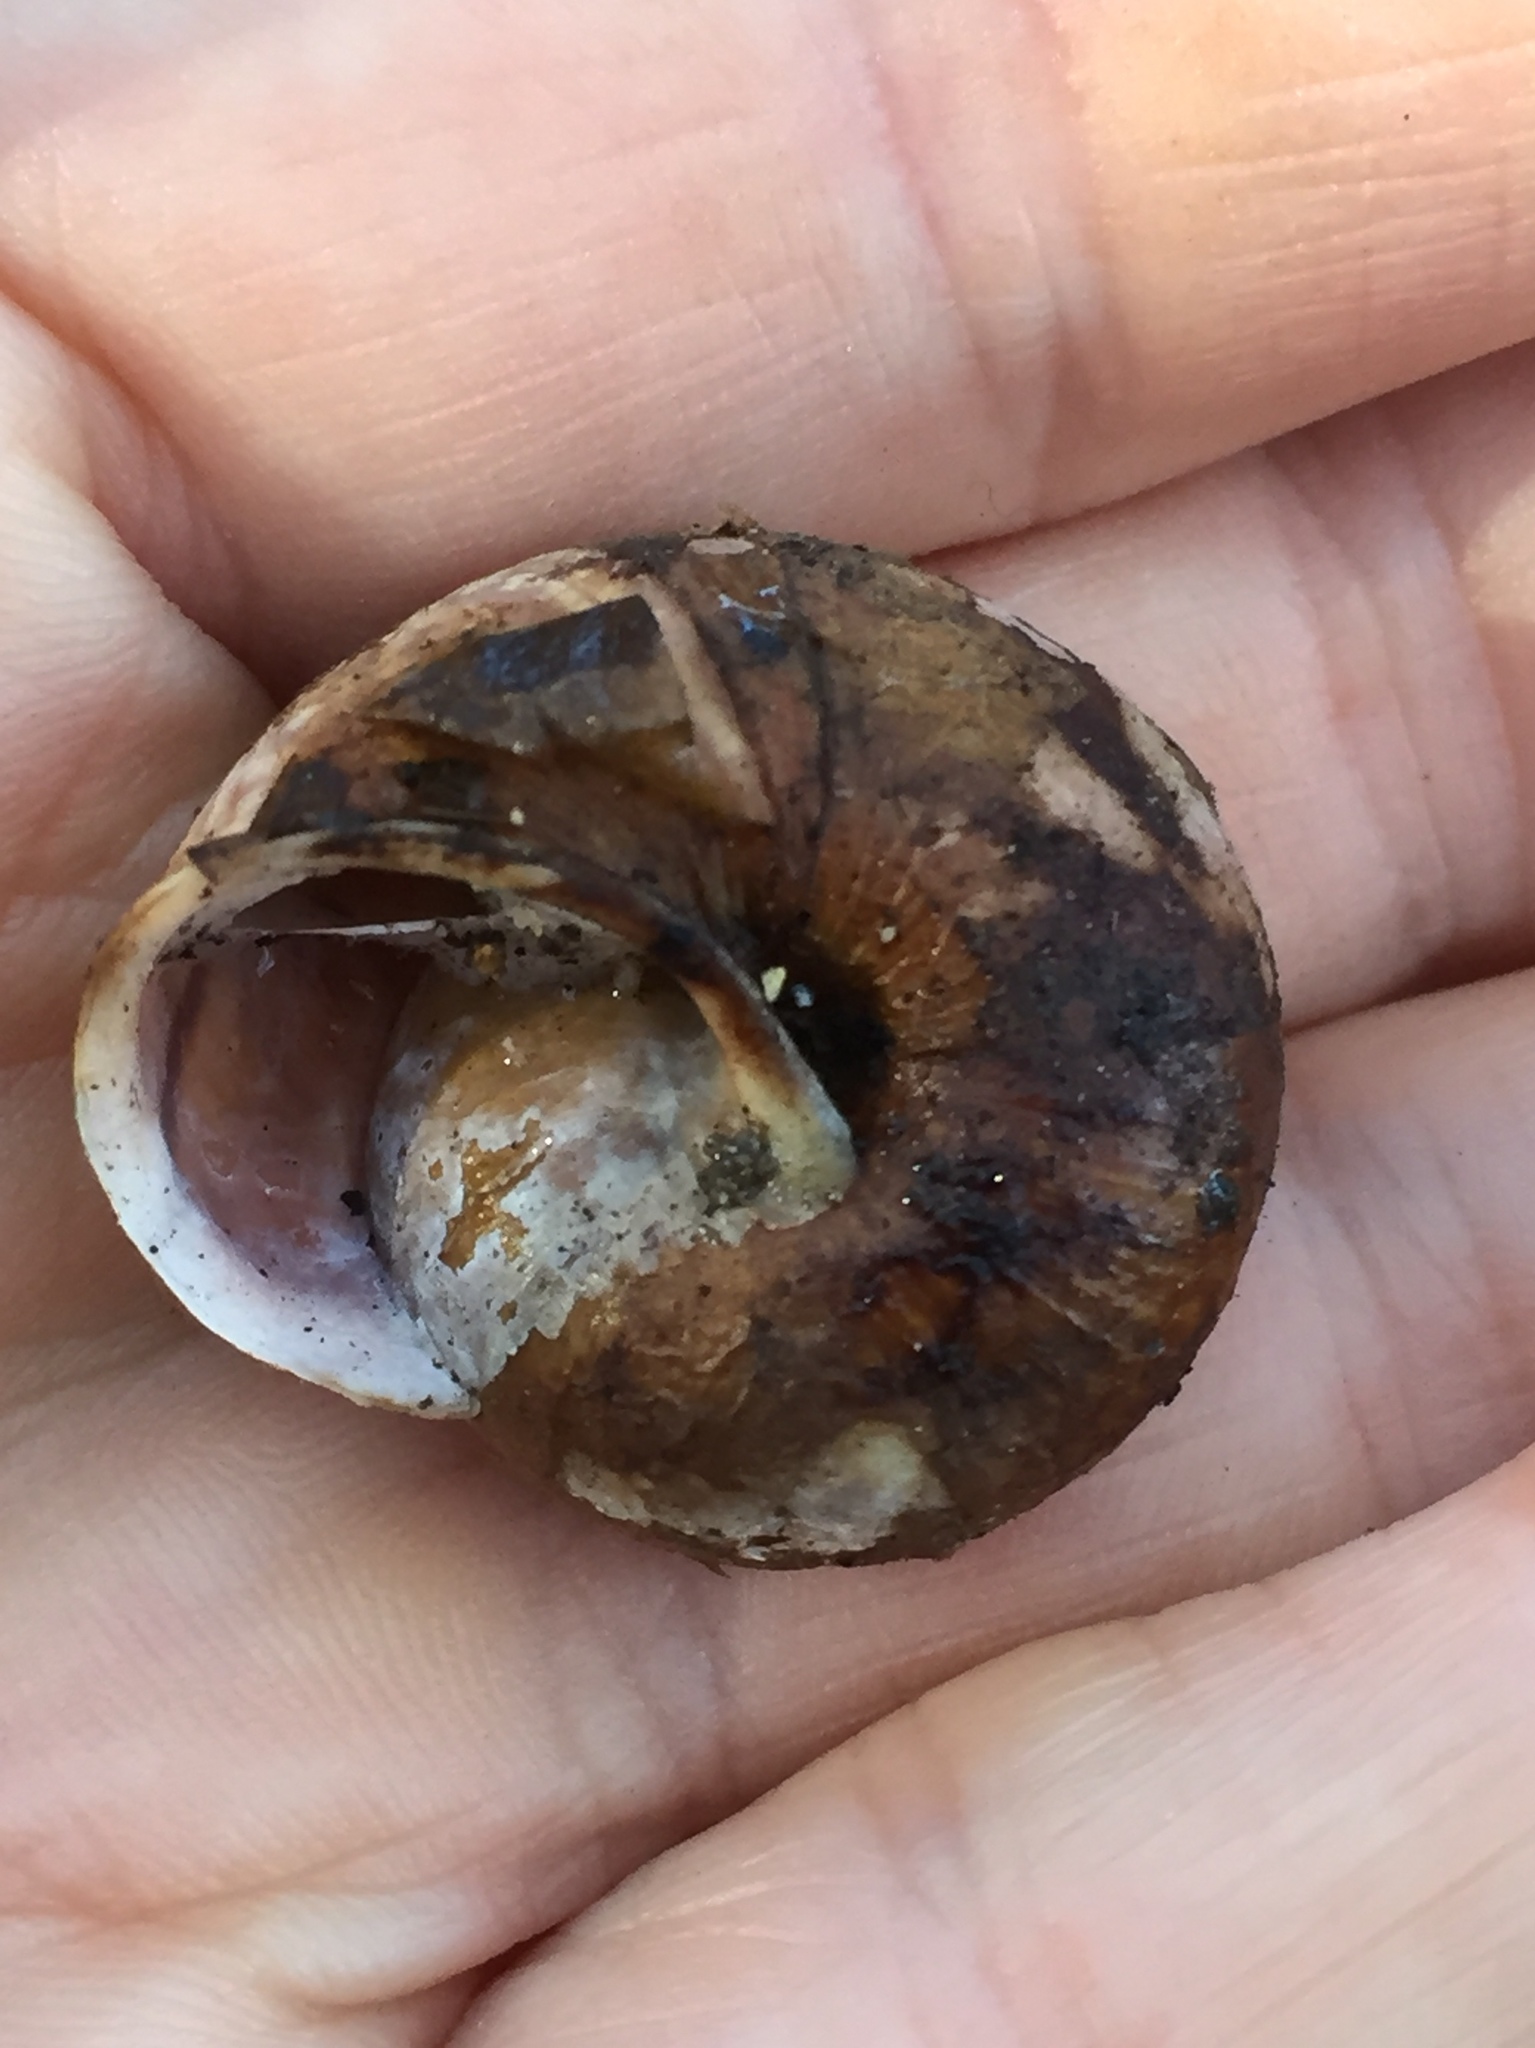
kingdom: Animalia
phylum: Mollusca
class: Gastropoda
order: Stylommatophora
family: Xanthonychidae
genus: Helminthoglypta
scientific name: Helminthoglypta arrosa
